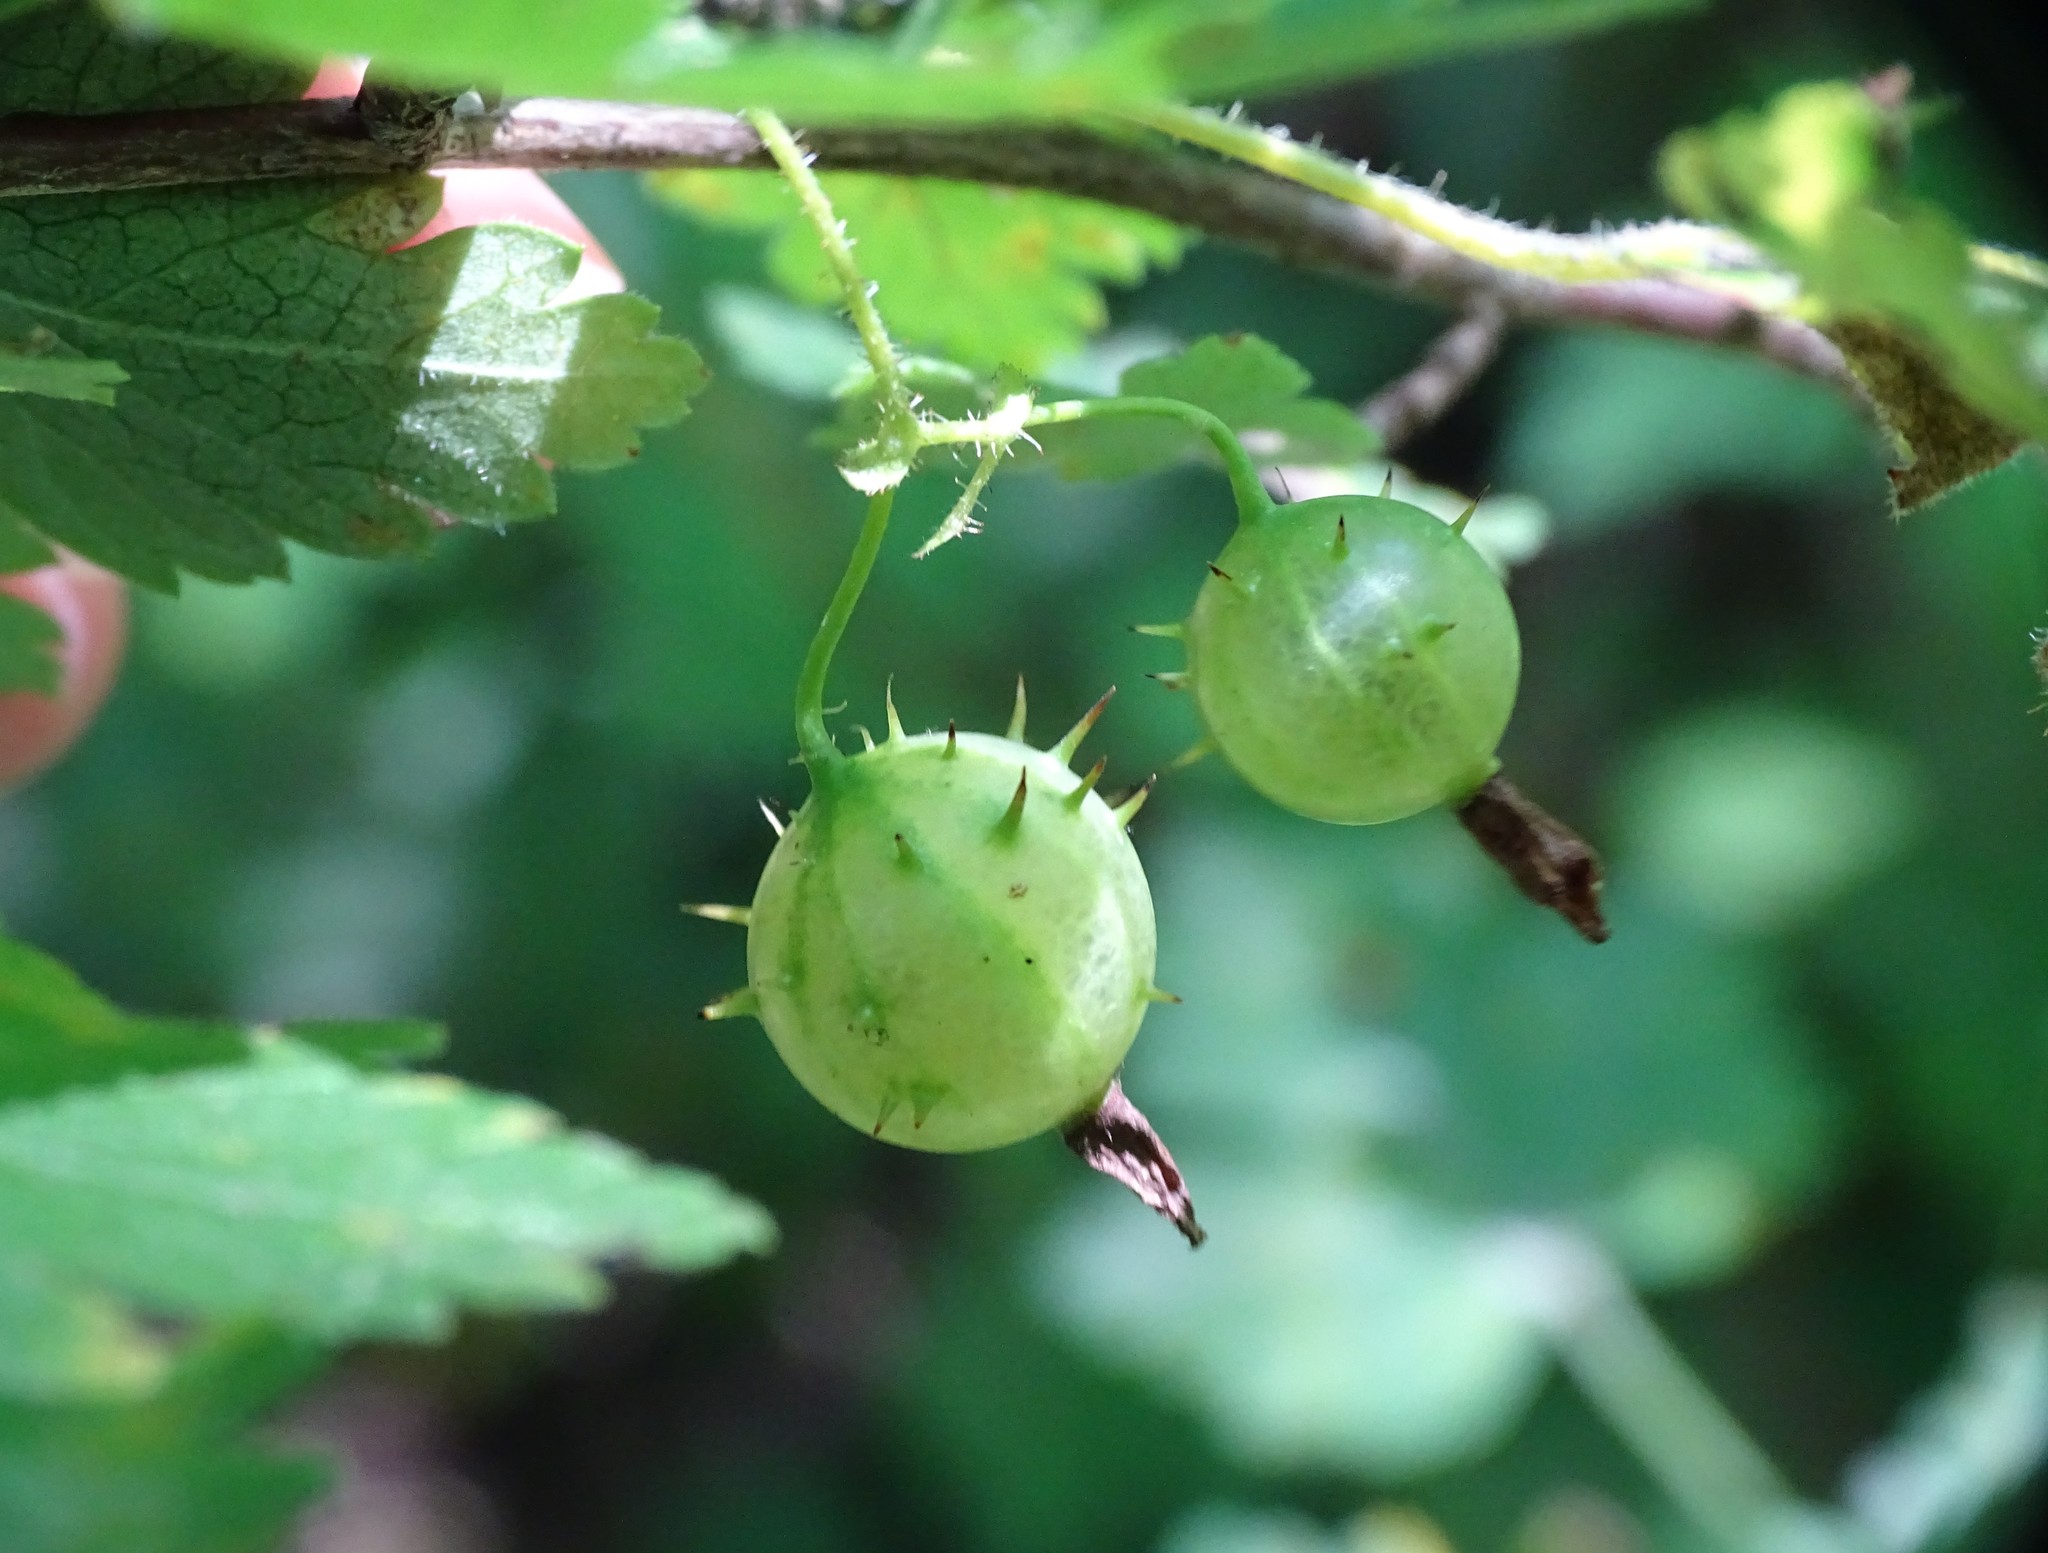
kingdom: Plantae
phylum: Tracheophyta
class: Magnoliopsida
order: Saxifragales
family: Grossulariaceae
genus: Ribes
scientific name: Ribes cynosbati
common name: American gooseberry
